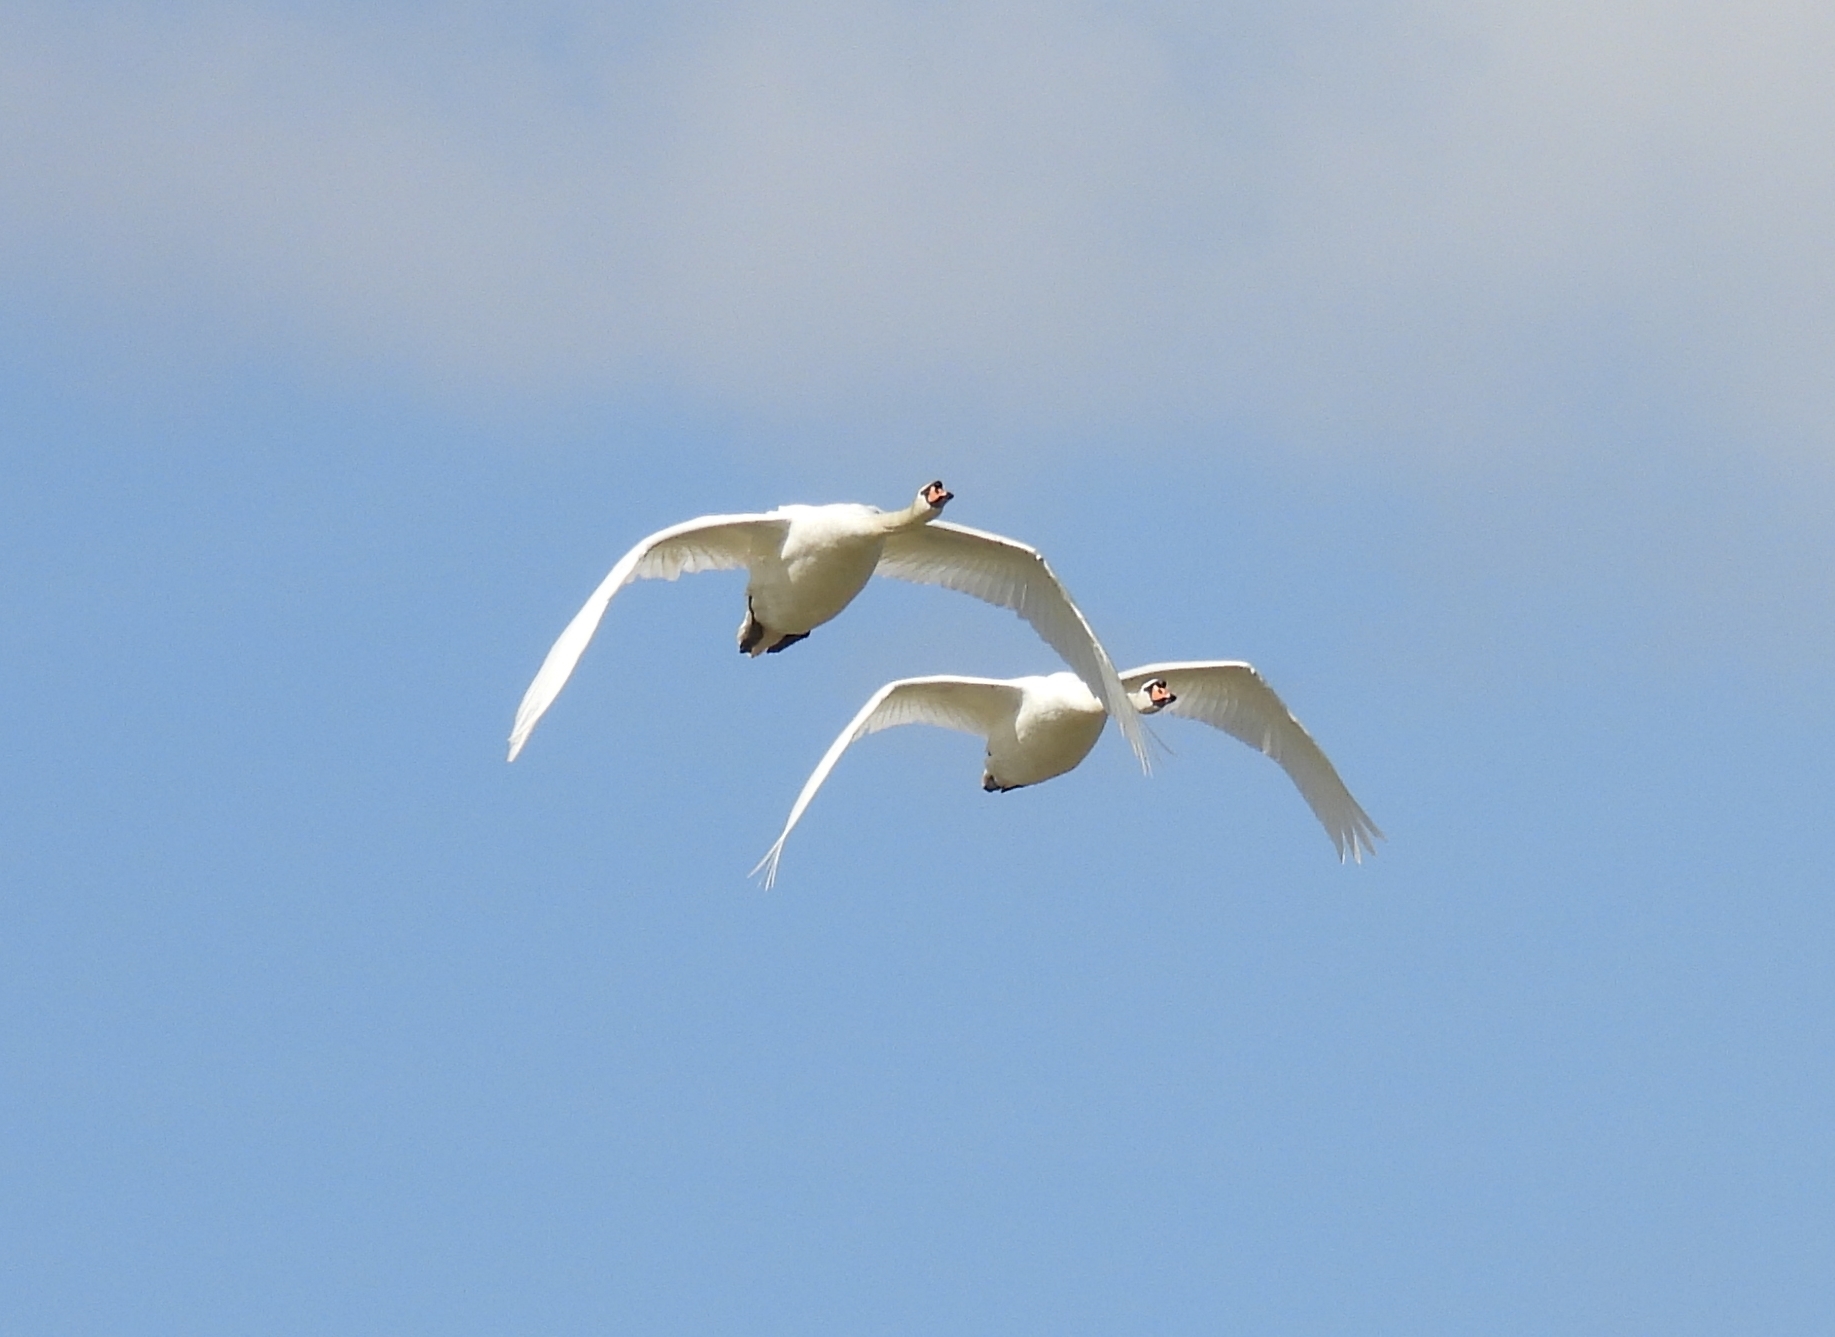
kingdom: Animalia
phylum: Chordata
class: Aves
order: Anseriformes
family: Anatidae
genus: Cygnus
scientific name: Cygnus olor
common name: Mute swan
